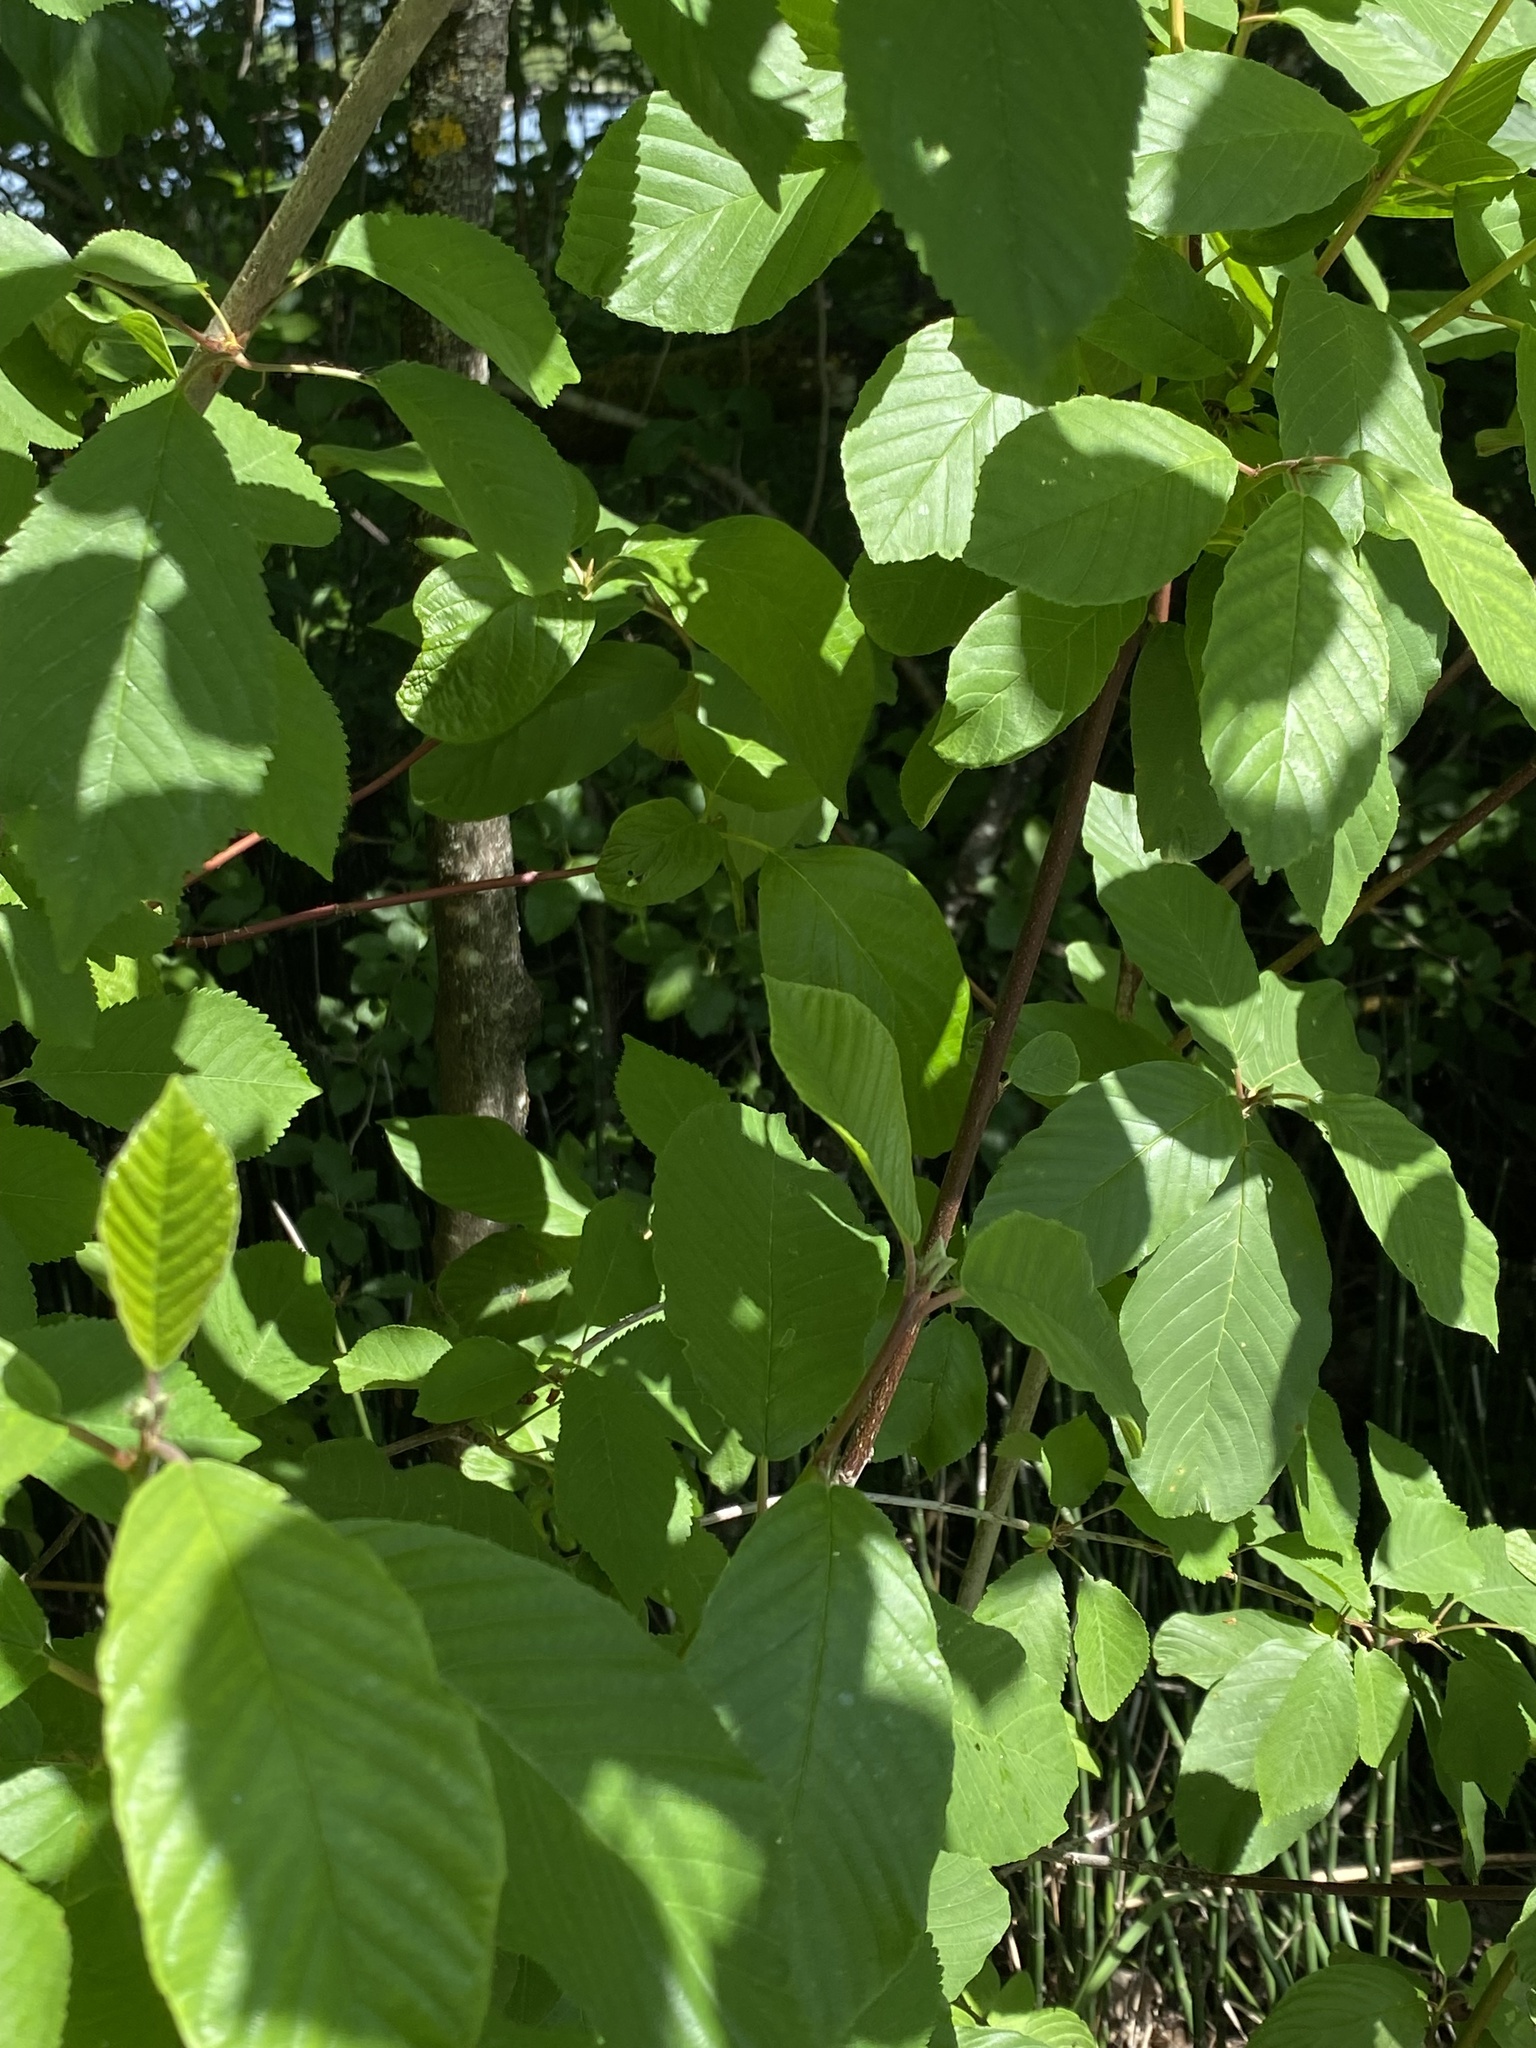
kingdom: Plantae
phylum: Tracheophyta
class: Magnoliopsida
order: Cornales
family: Cornaceae
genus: Cornus
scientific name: Cornus sericea
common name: Red-osier dogwood
